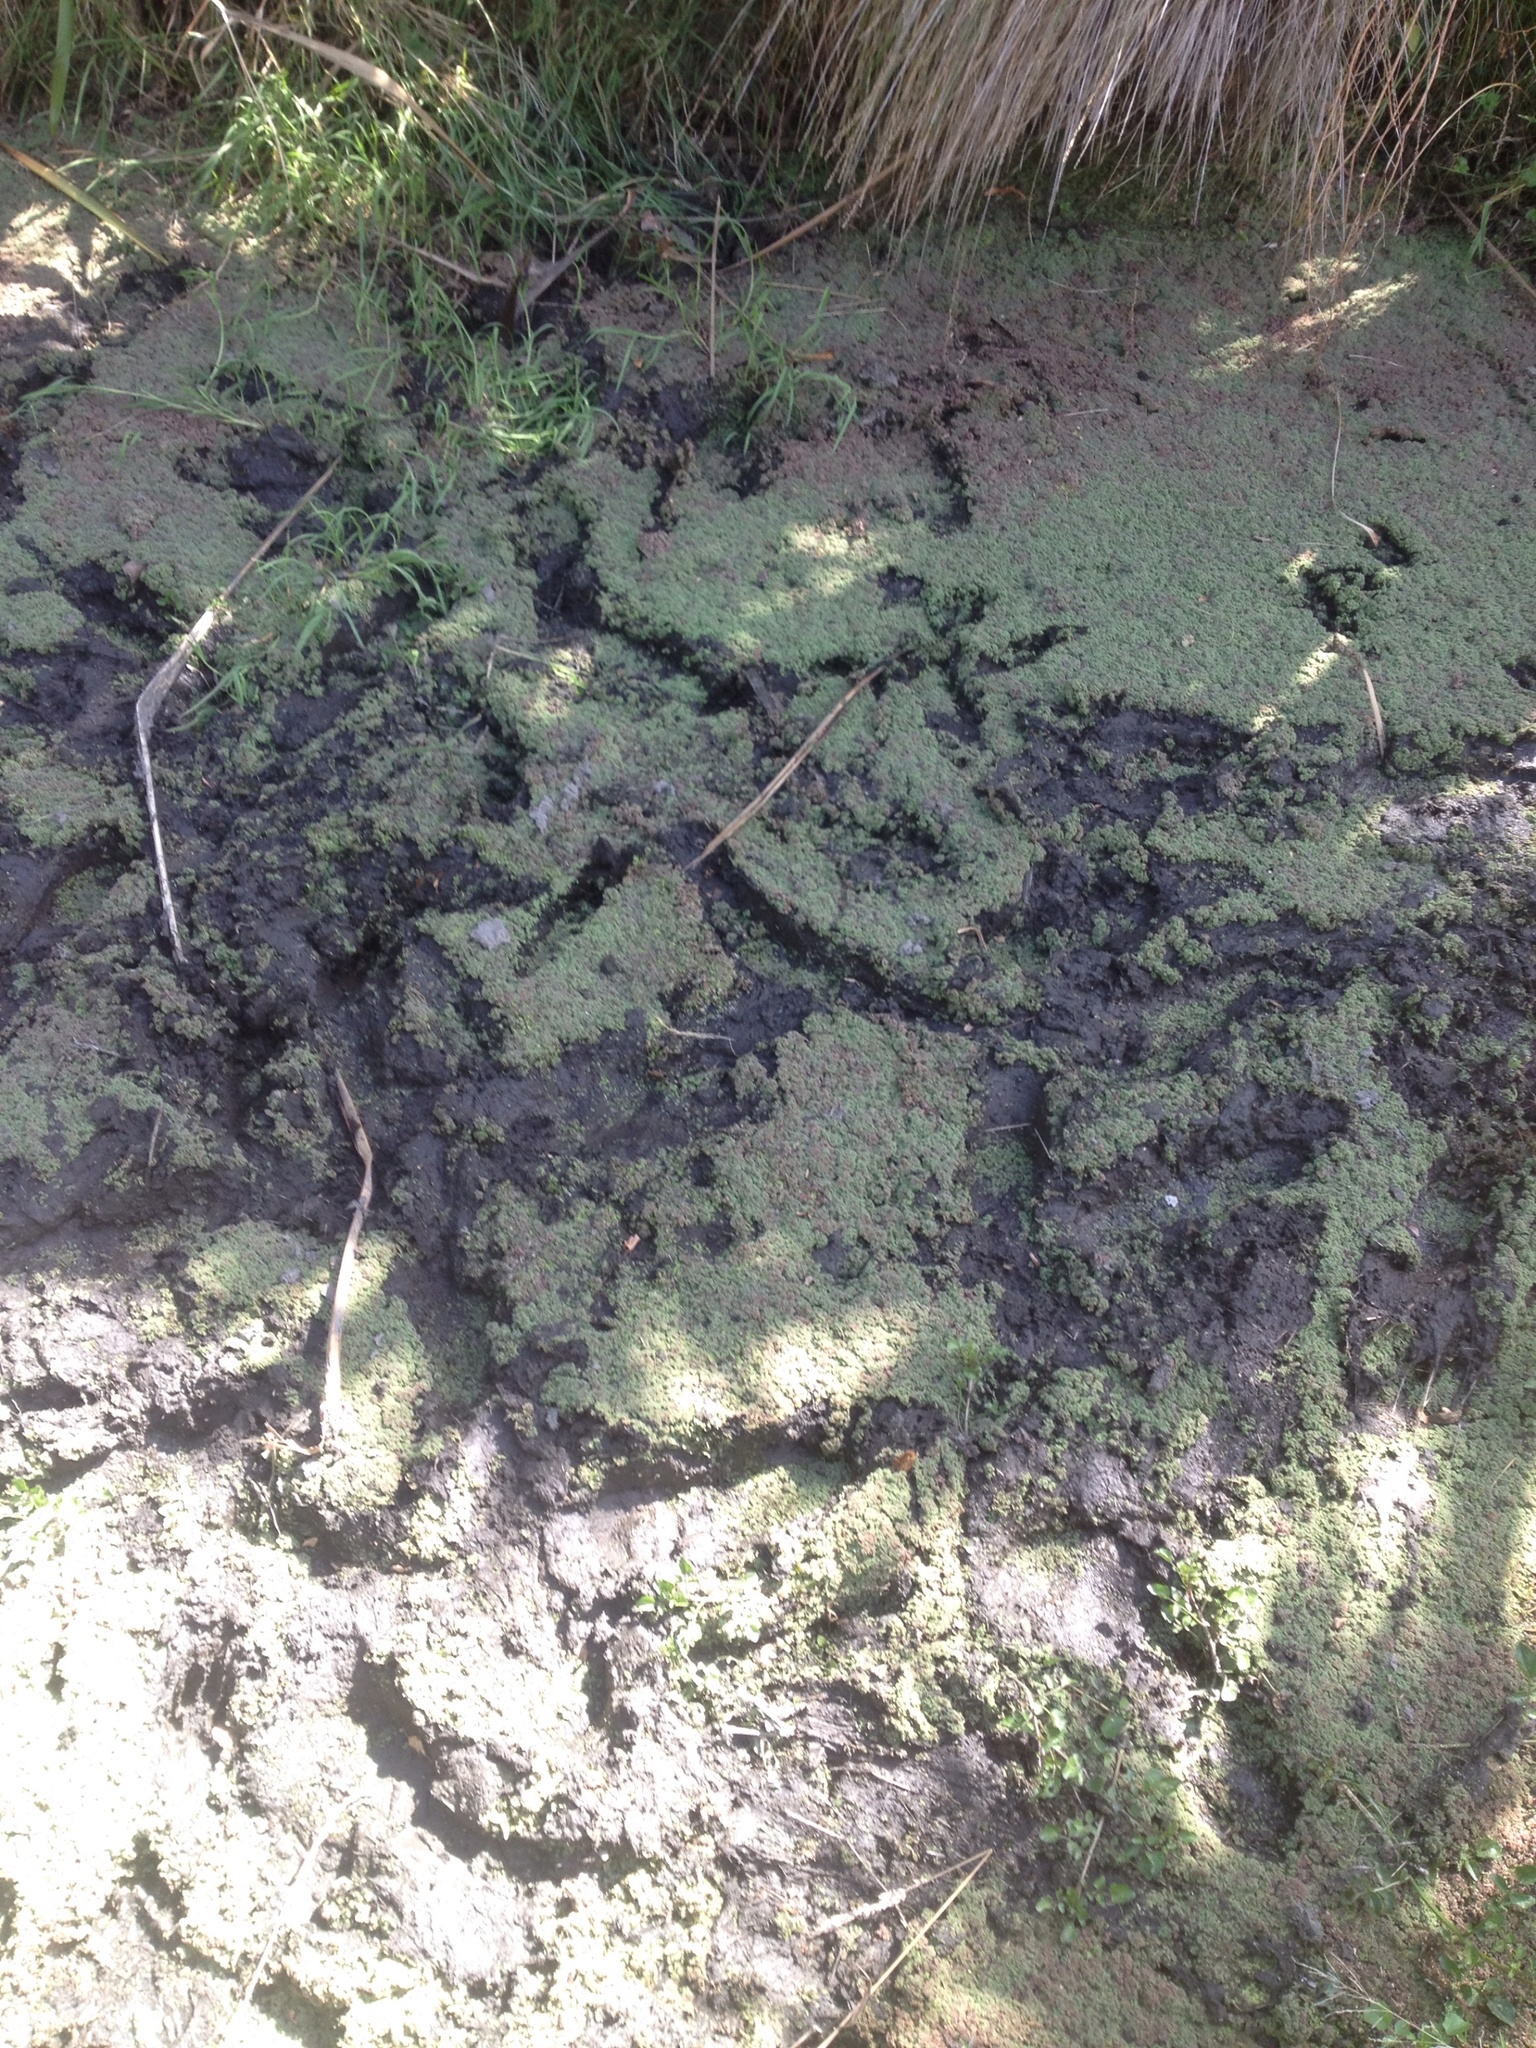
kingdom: Plantae
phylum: Tracheophyta
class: Polypodiopsida
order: Salviniales
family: Salviniaceae
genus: Azolla
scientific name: Azolla rubra
